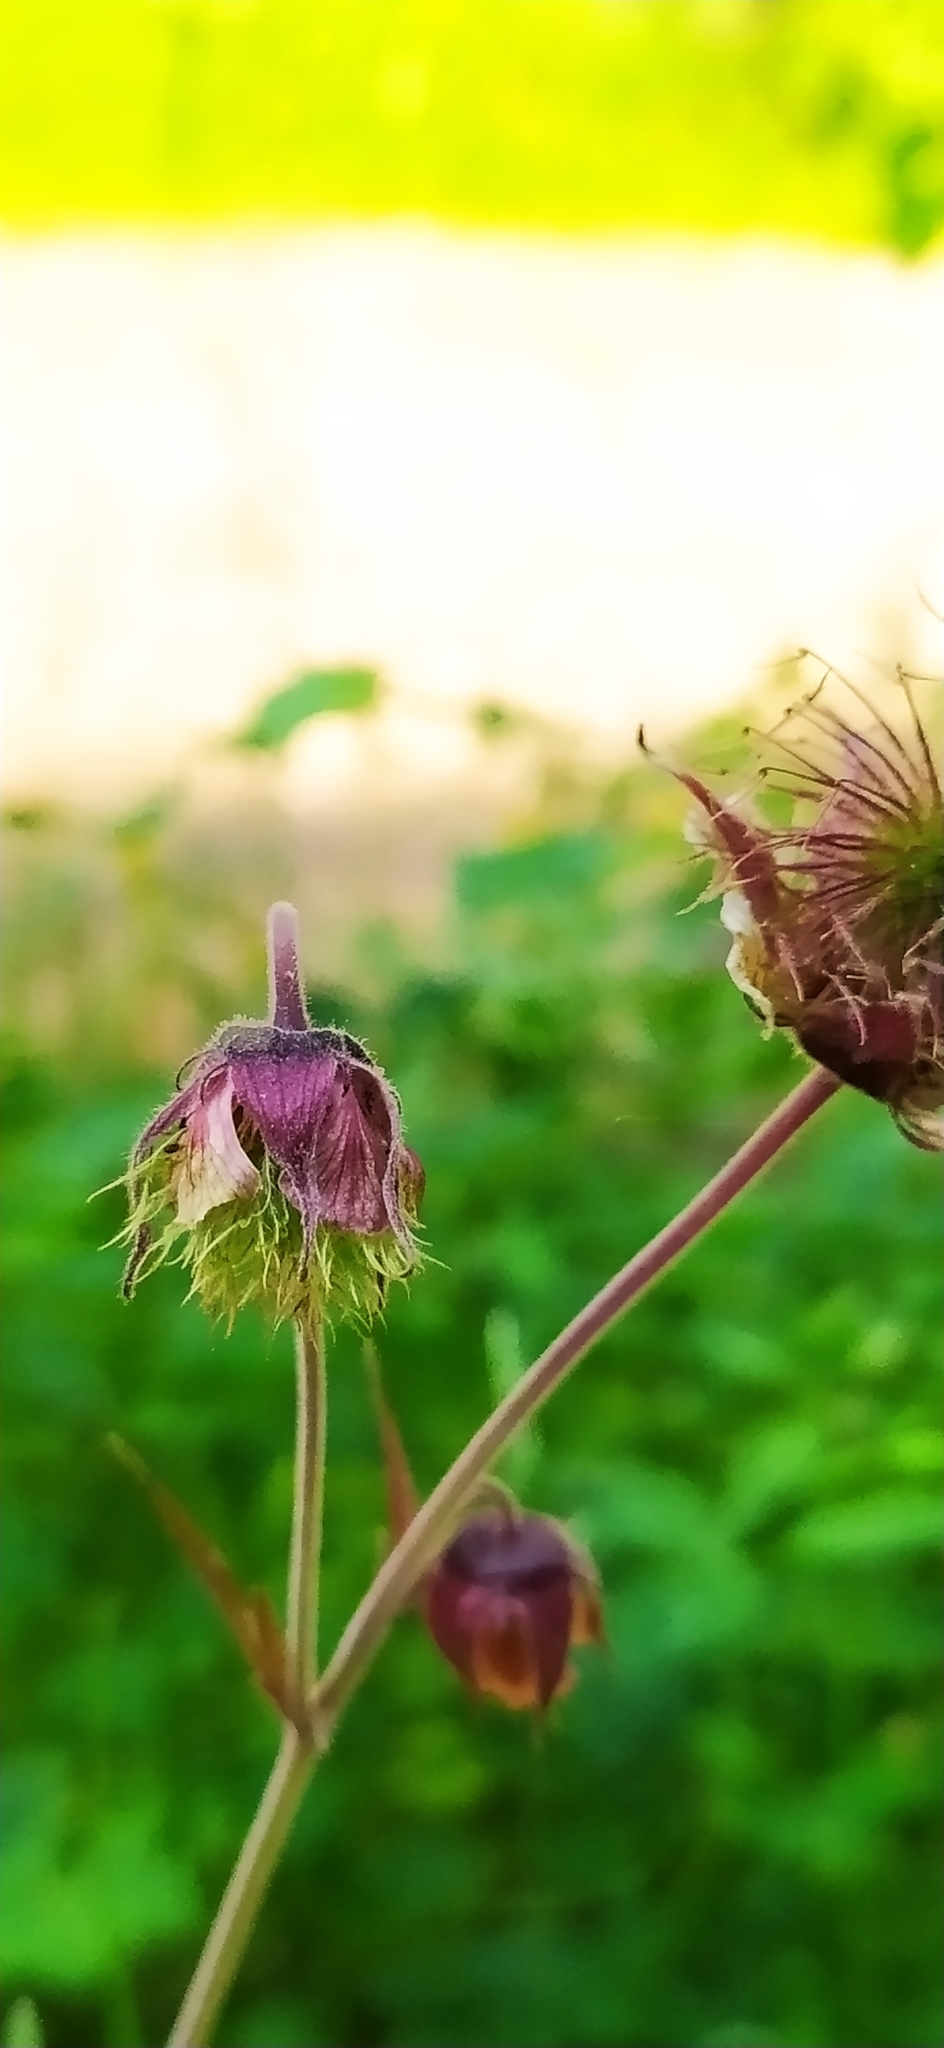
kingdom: Plantae
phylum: Tracheophyta
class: Magnoliopsida
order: Rosales
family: Rosaceae
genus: Geum
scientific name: Geum rivale
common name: Water avens
